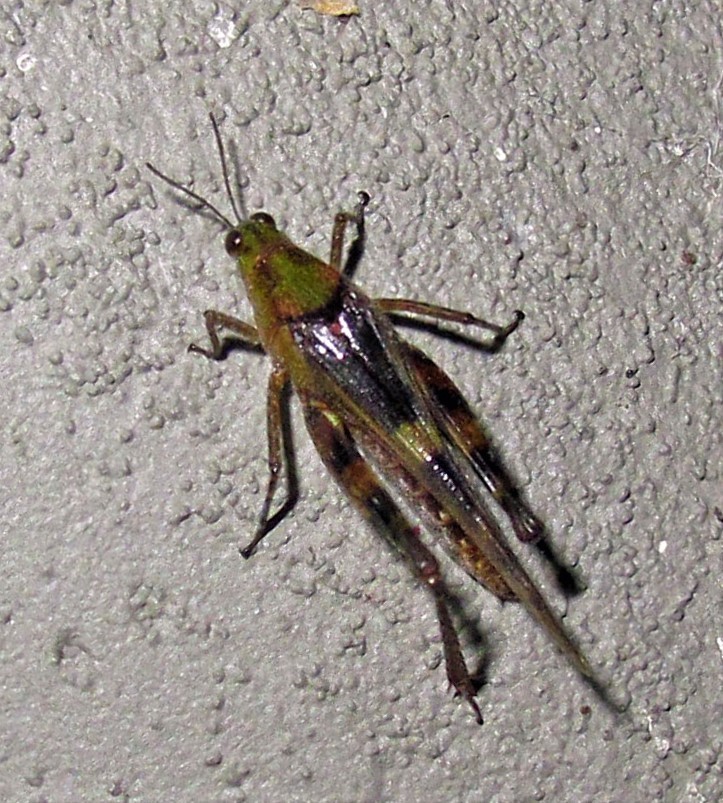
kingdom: Animalia
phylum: Arthropoda
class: Insecta
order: Orthoptera
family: Acrididae
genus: Paulinia
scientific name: Paulinia acuminata
